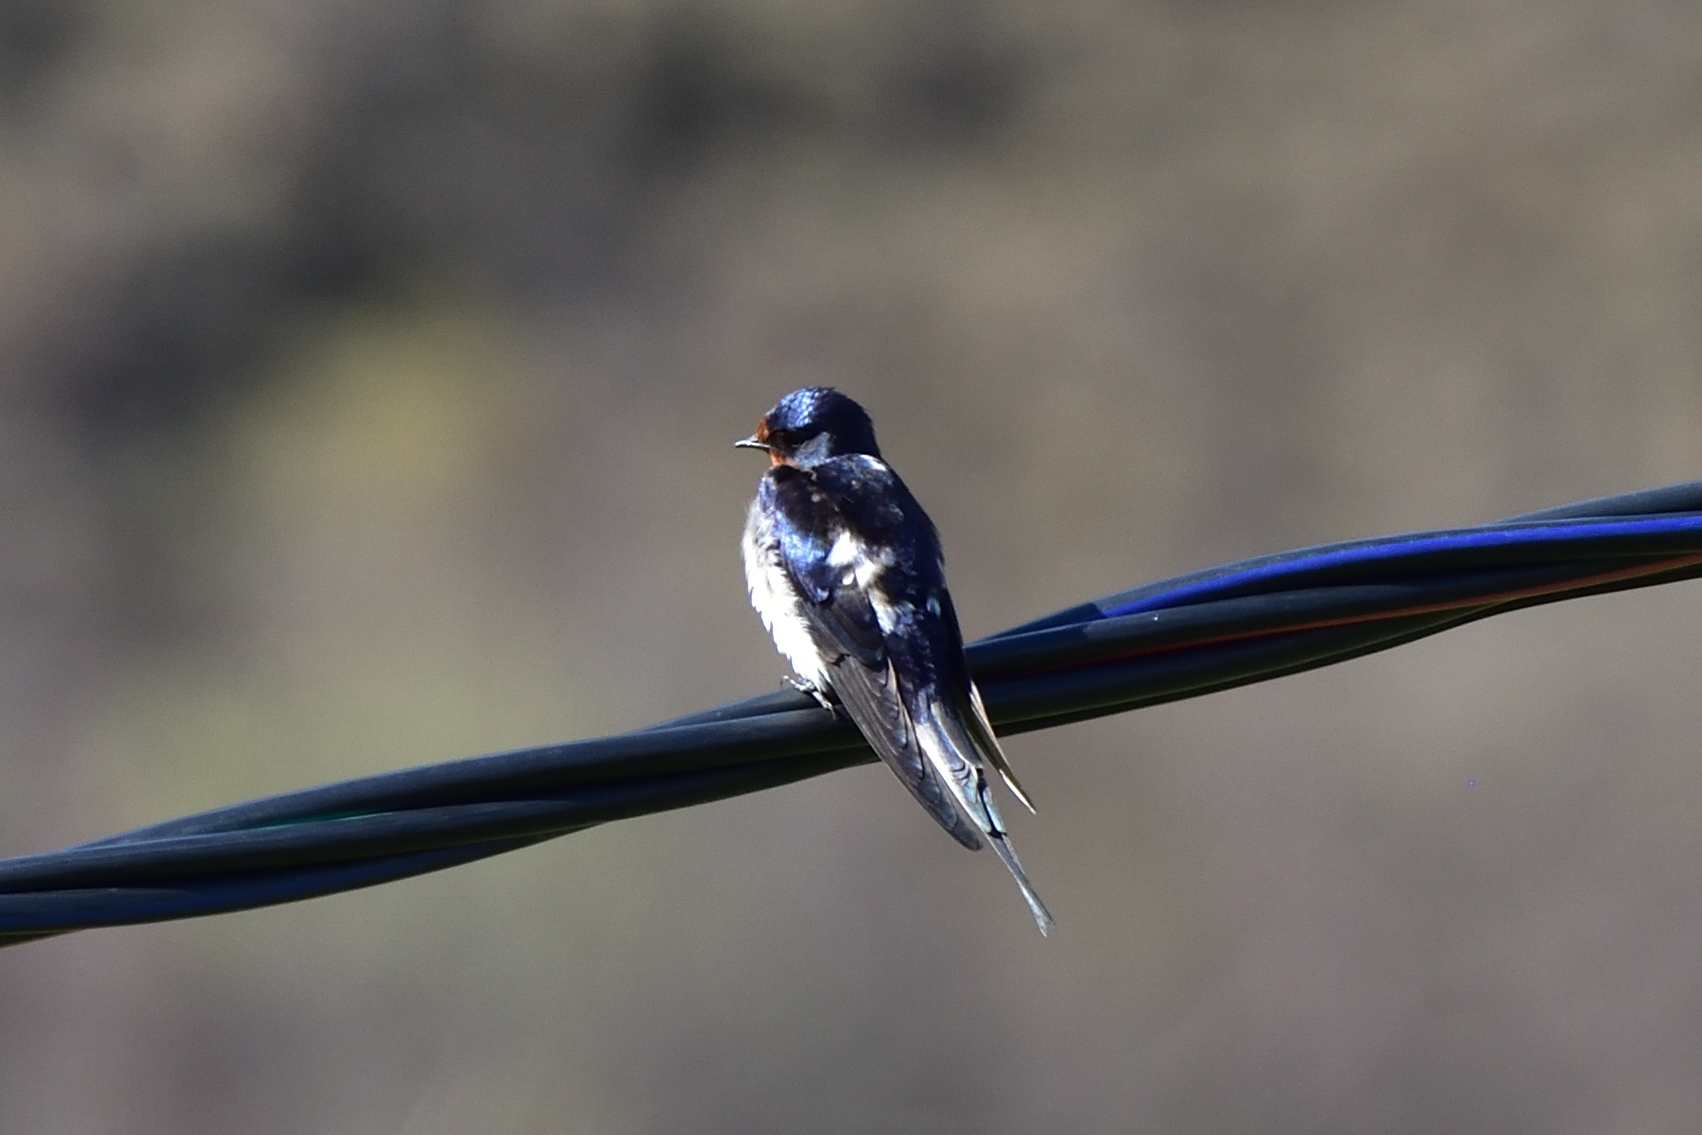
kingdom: Animalia
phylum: Chordata
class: Aves
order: Passeriformes
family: Hirundinidae
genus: Hirundo
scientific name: Hirundo rustica
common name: Barn swallow
